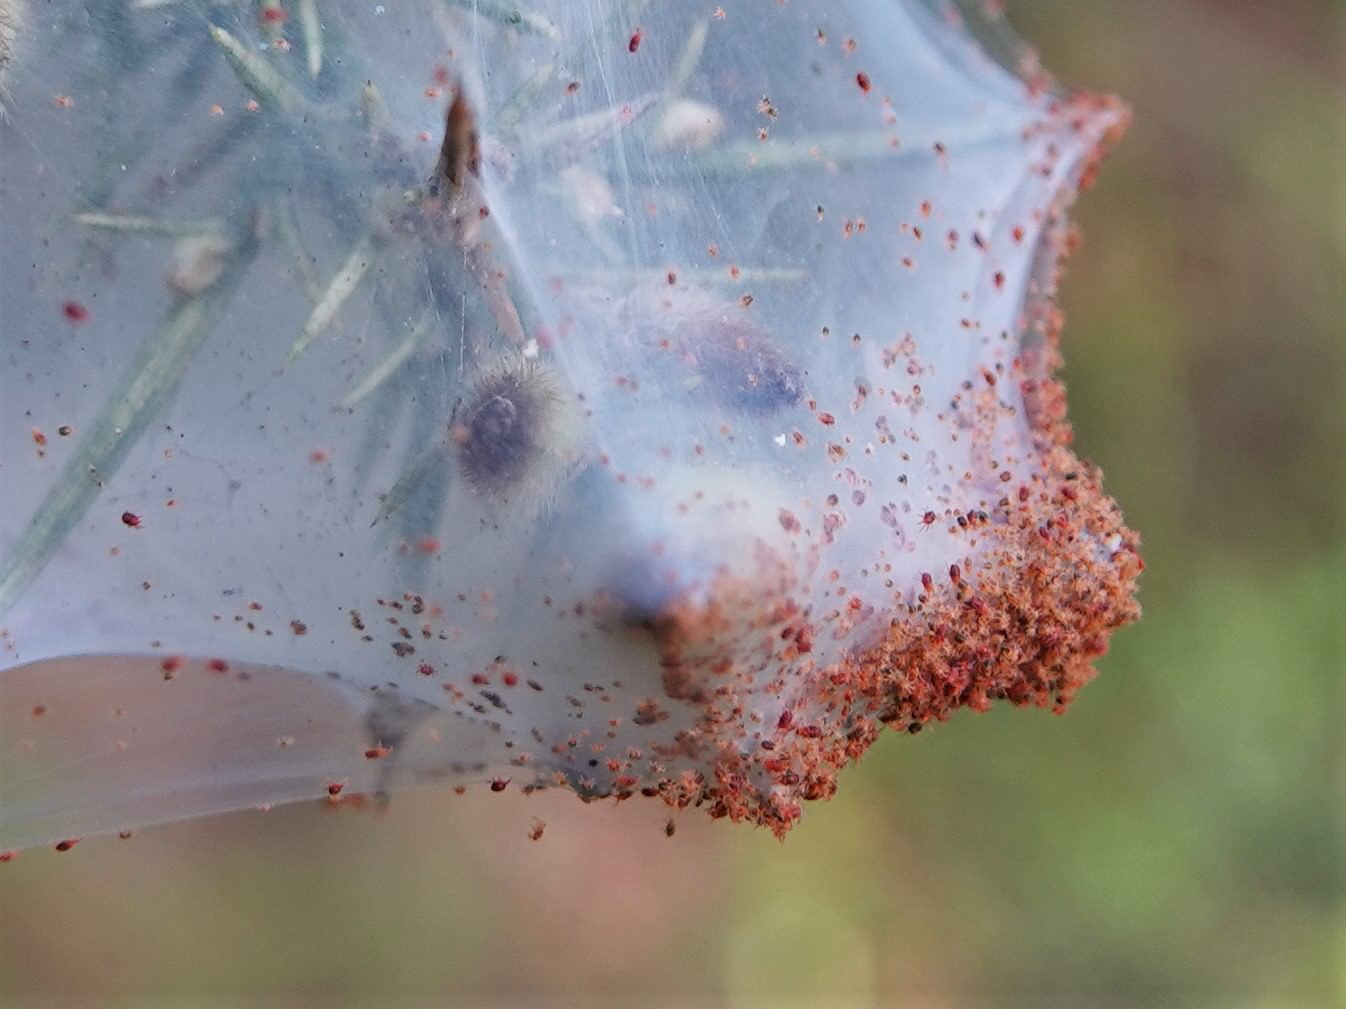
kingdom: Animalia
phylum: Arthropoda
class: Arachnida
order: Trombidiformes
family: Tetranychidae
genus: Tetranychus
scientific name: Tetranychus lintearius
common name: Gorse spider mite
